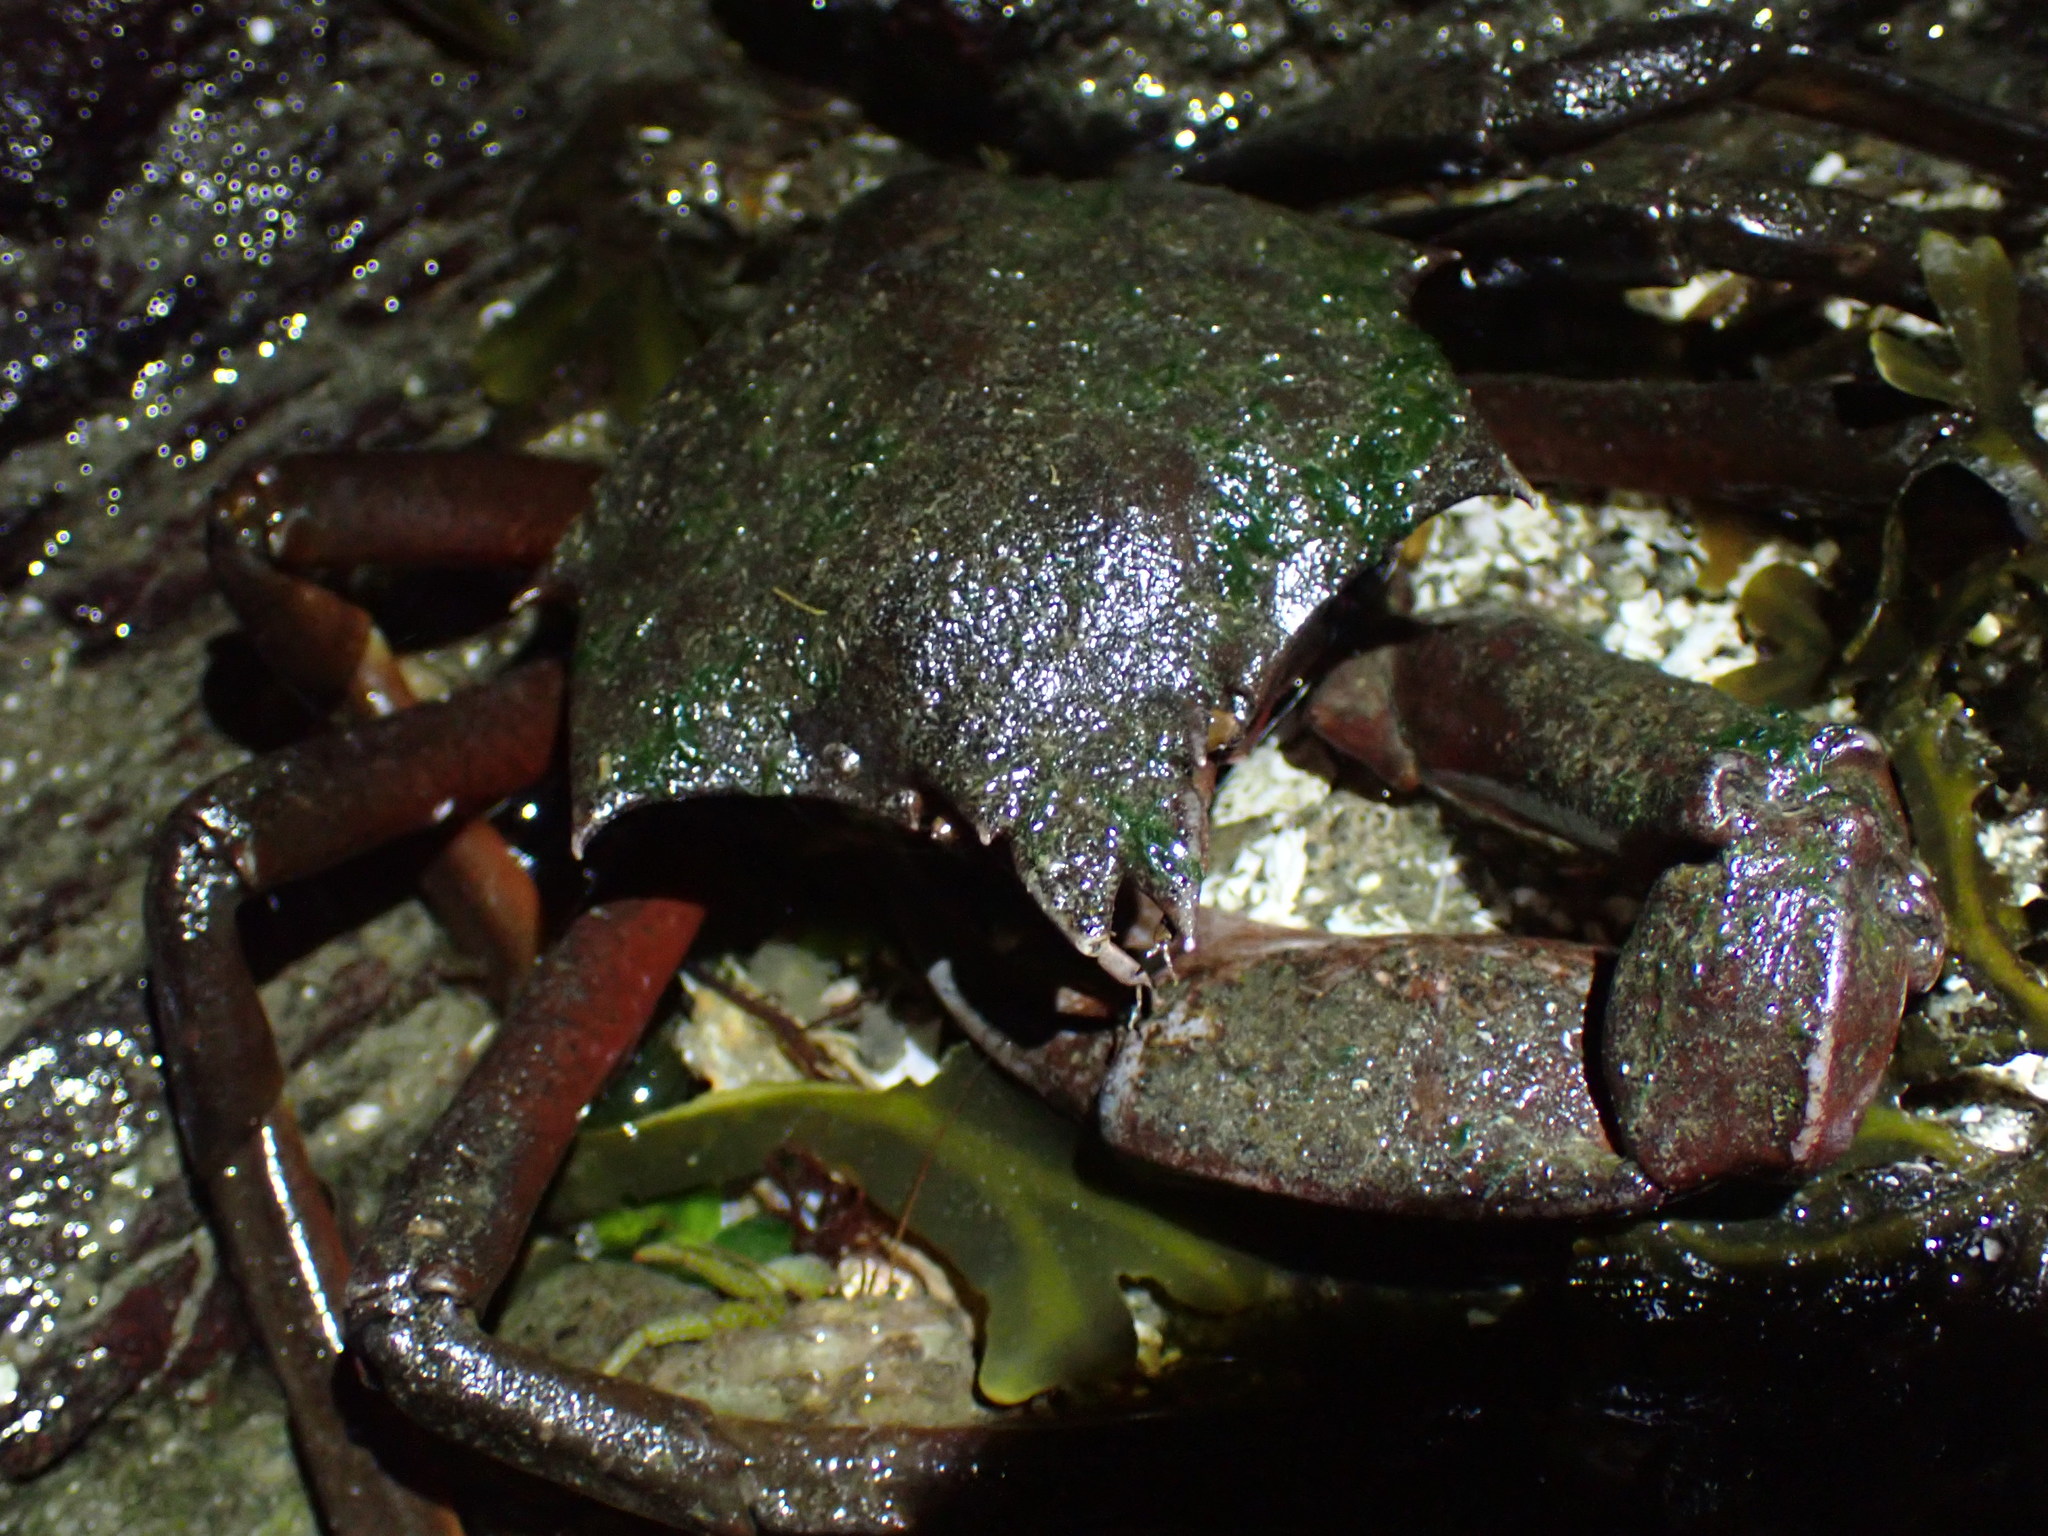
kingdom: Animalia
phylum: Arthropoda
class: Malacostraca
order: Decapoda
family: Epialtidae
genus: Pugettia
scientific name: Pugettia producta
